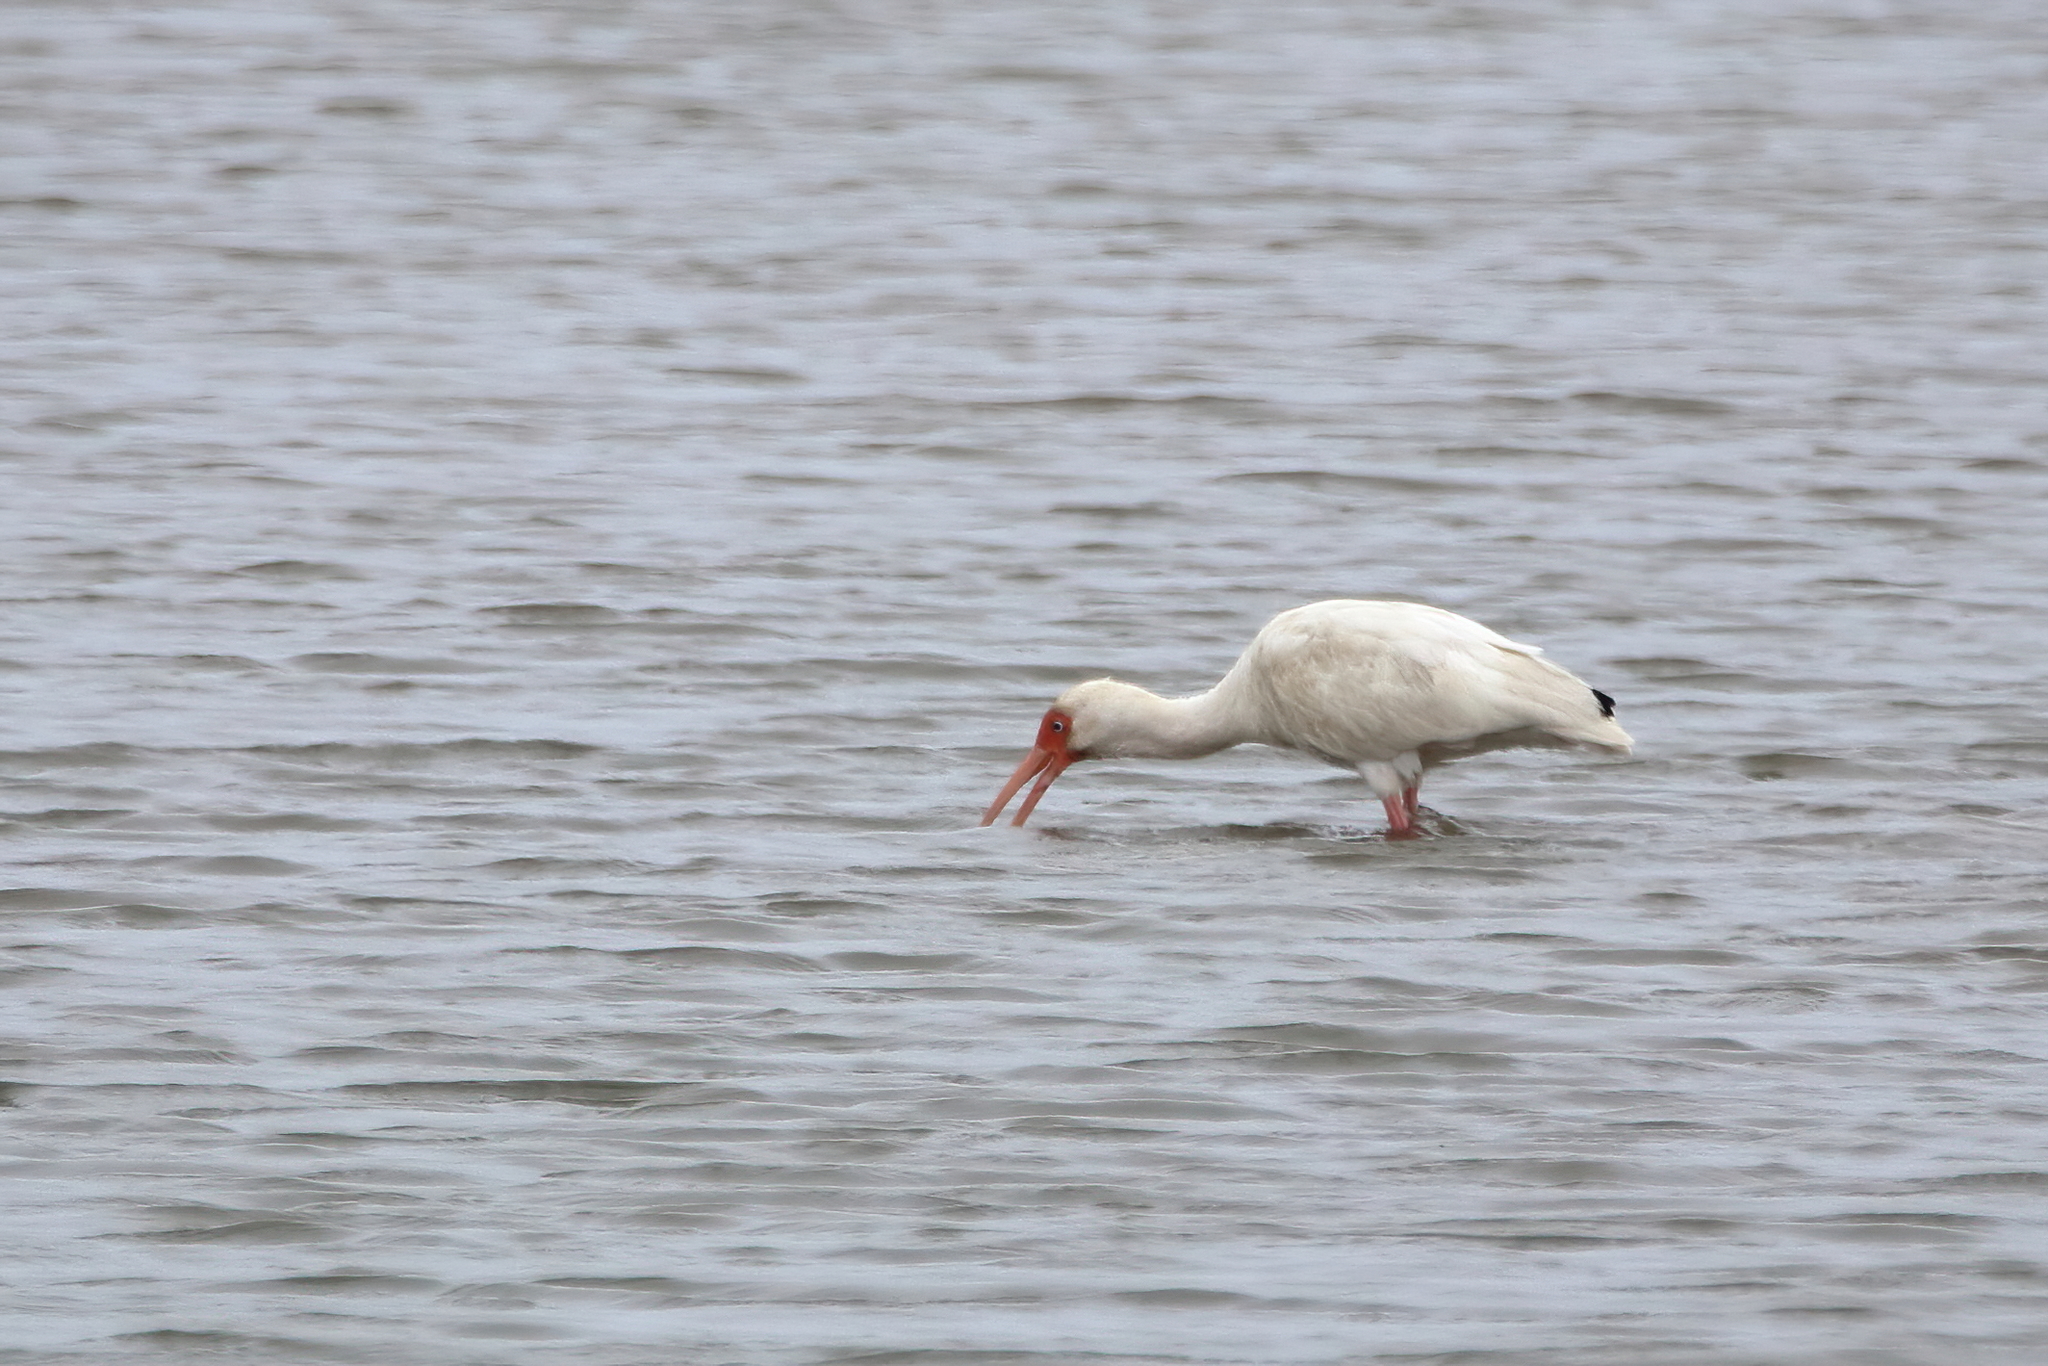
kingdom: Animalia
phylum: Chordata
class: Aves
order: Pelecaniformes
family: Threskiornithidae
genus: Eudocimus
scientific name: Eudocimus albus
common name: White ibis
